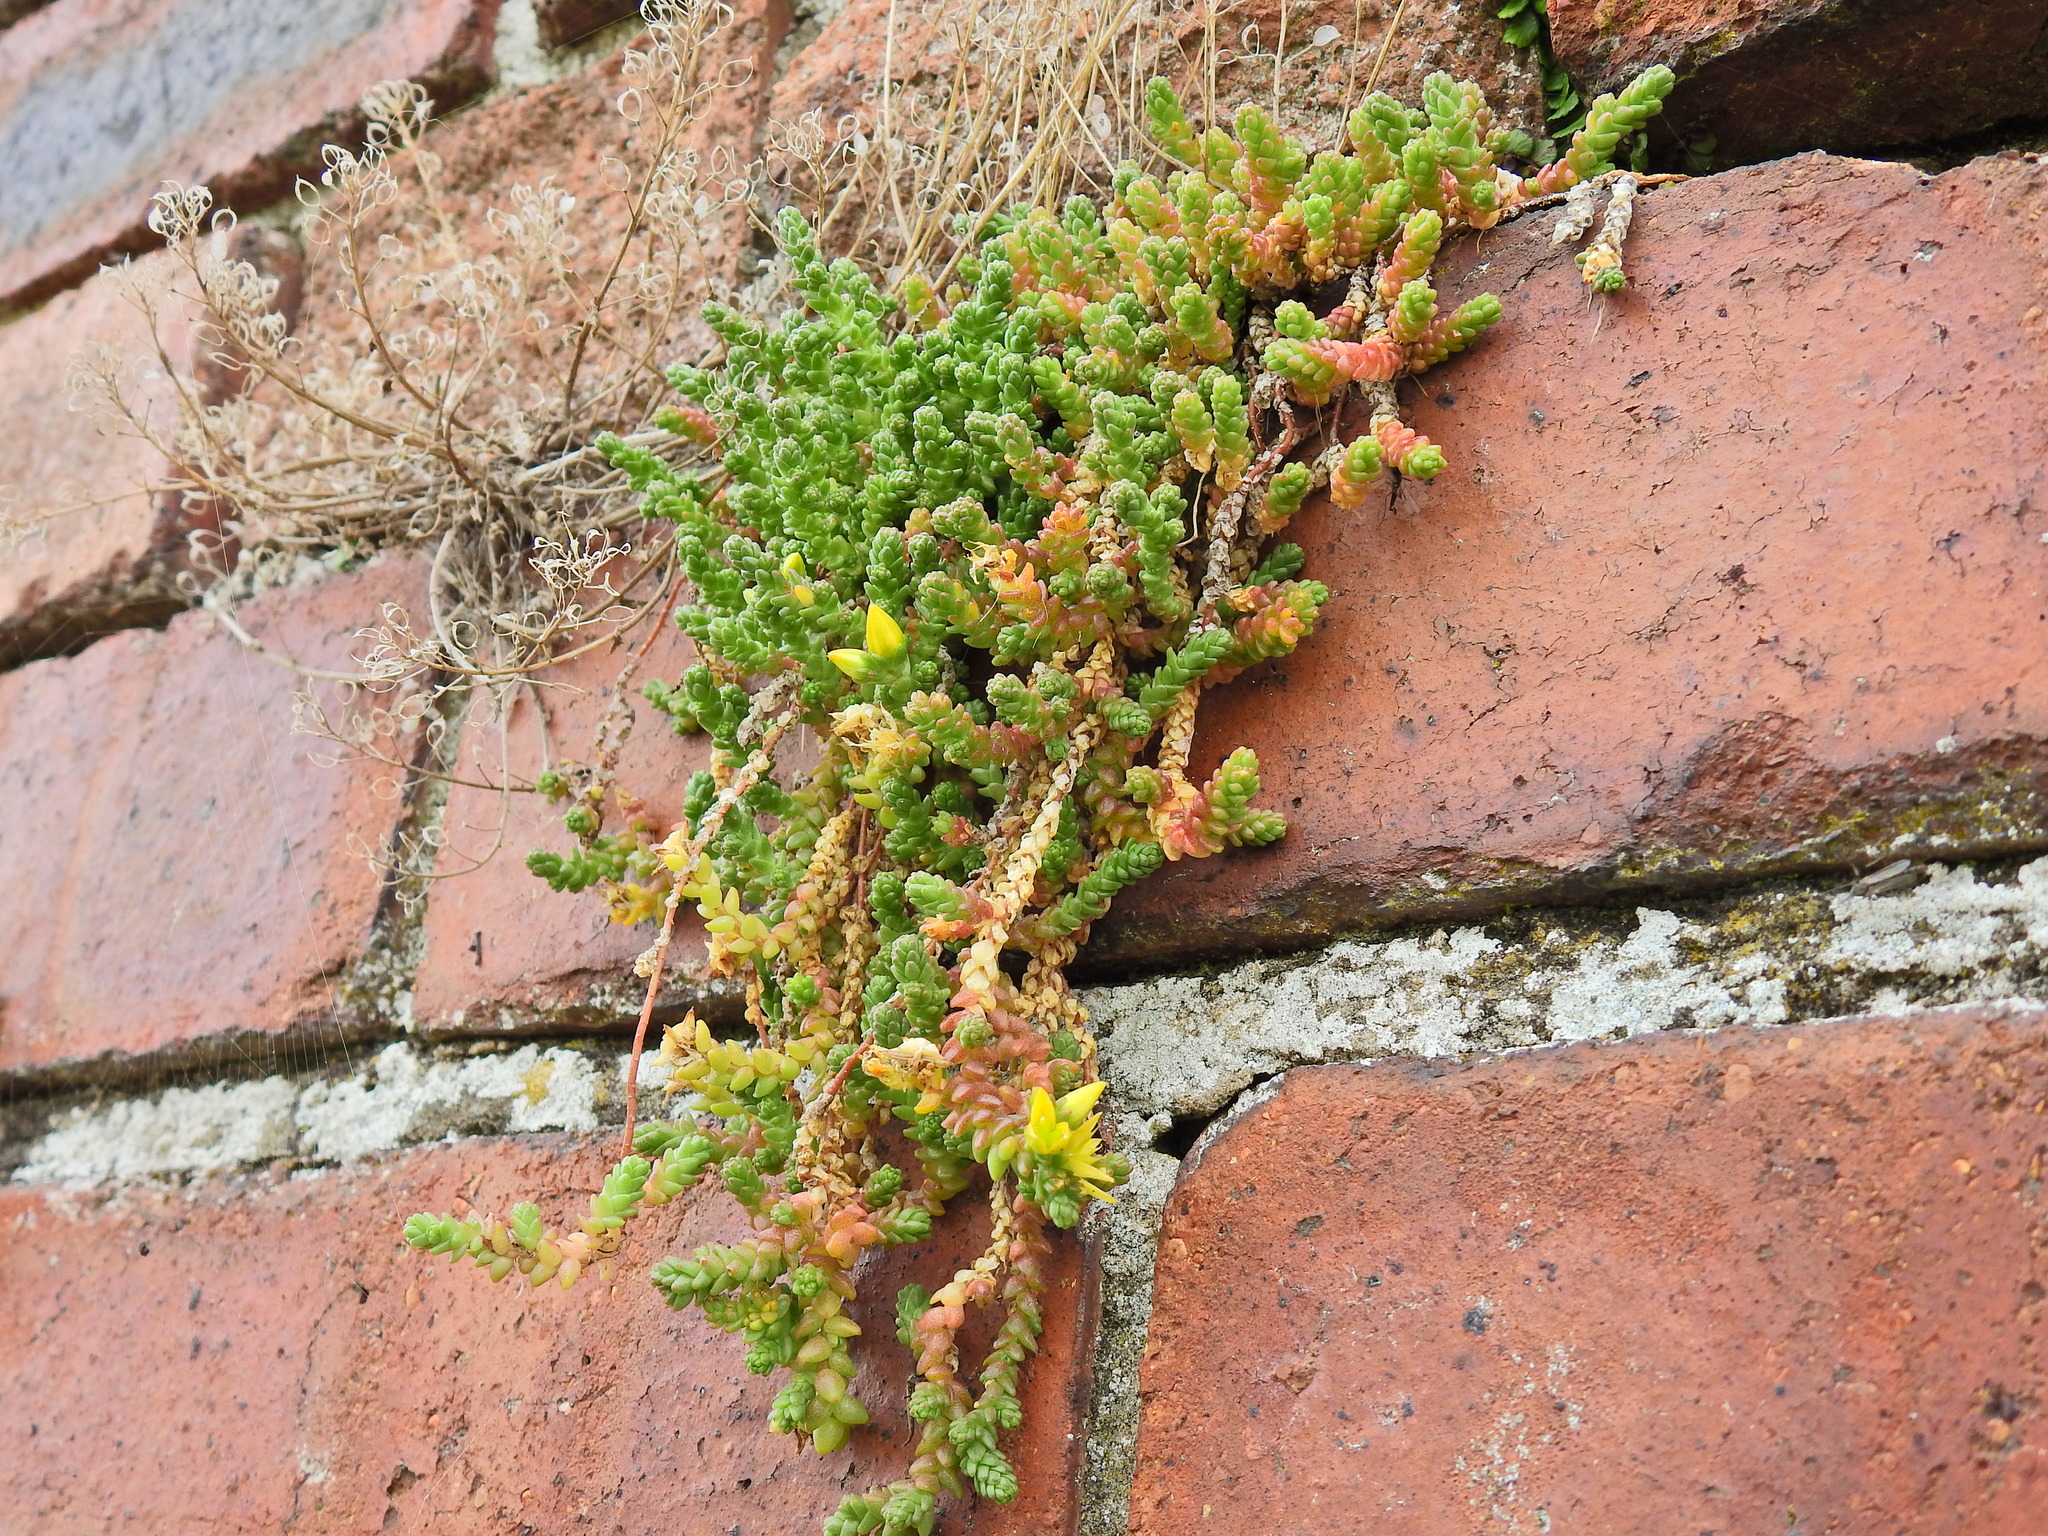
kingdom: Plantae
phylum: Tracheophyta
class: Magnoliopsida
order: Saxifragales
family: Crassulaceae
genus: Sedum
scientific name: Sedum acre
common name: Biting stonecrop
